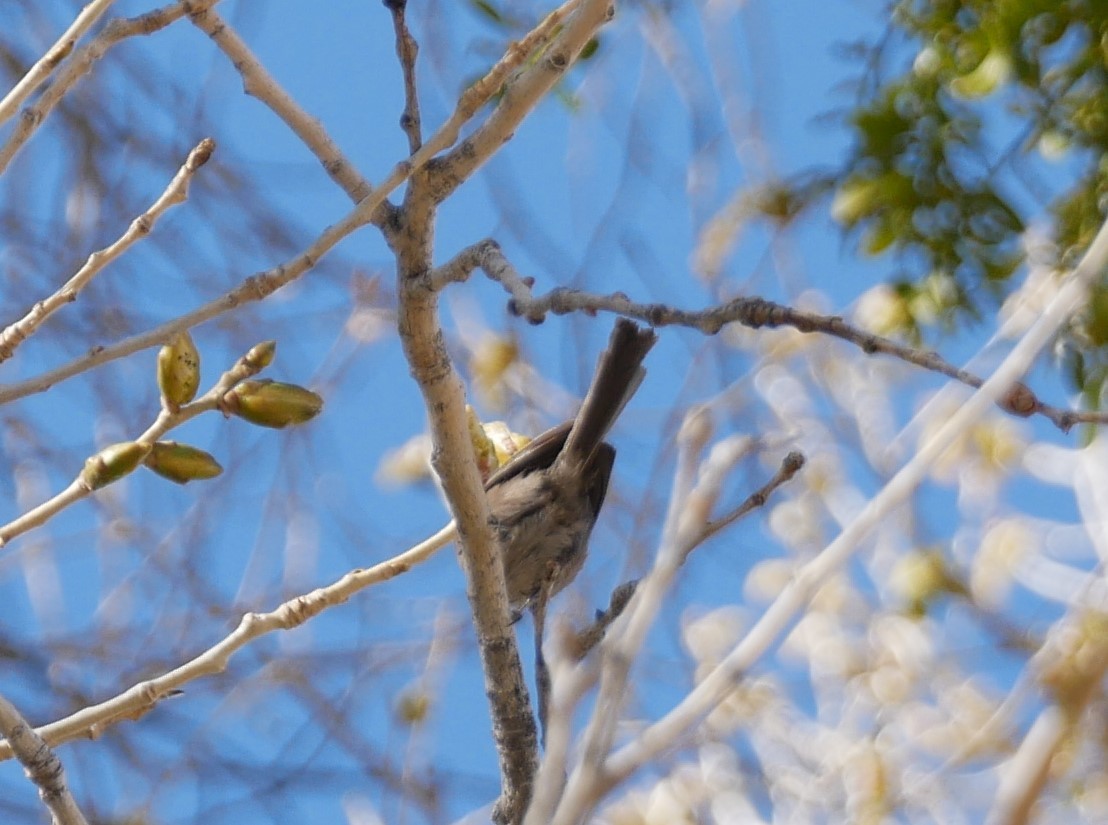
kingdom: Animalia
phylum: Chordata
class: Aves
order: Passeriformes
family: Aegithalidae
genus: Psaltriparus
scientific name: Psaltriparus minimus
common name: American bushtit
